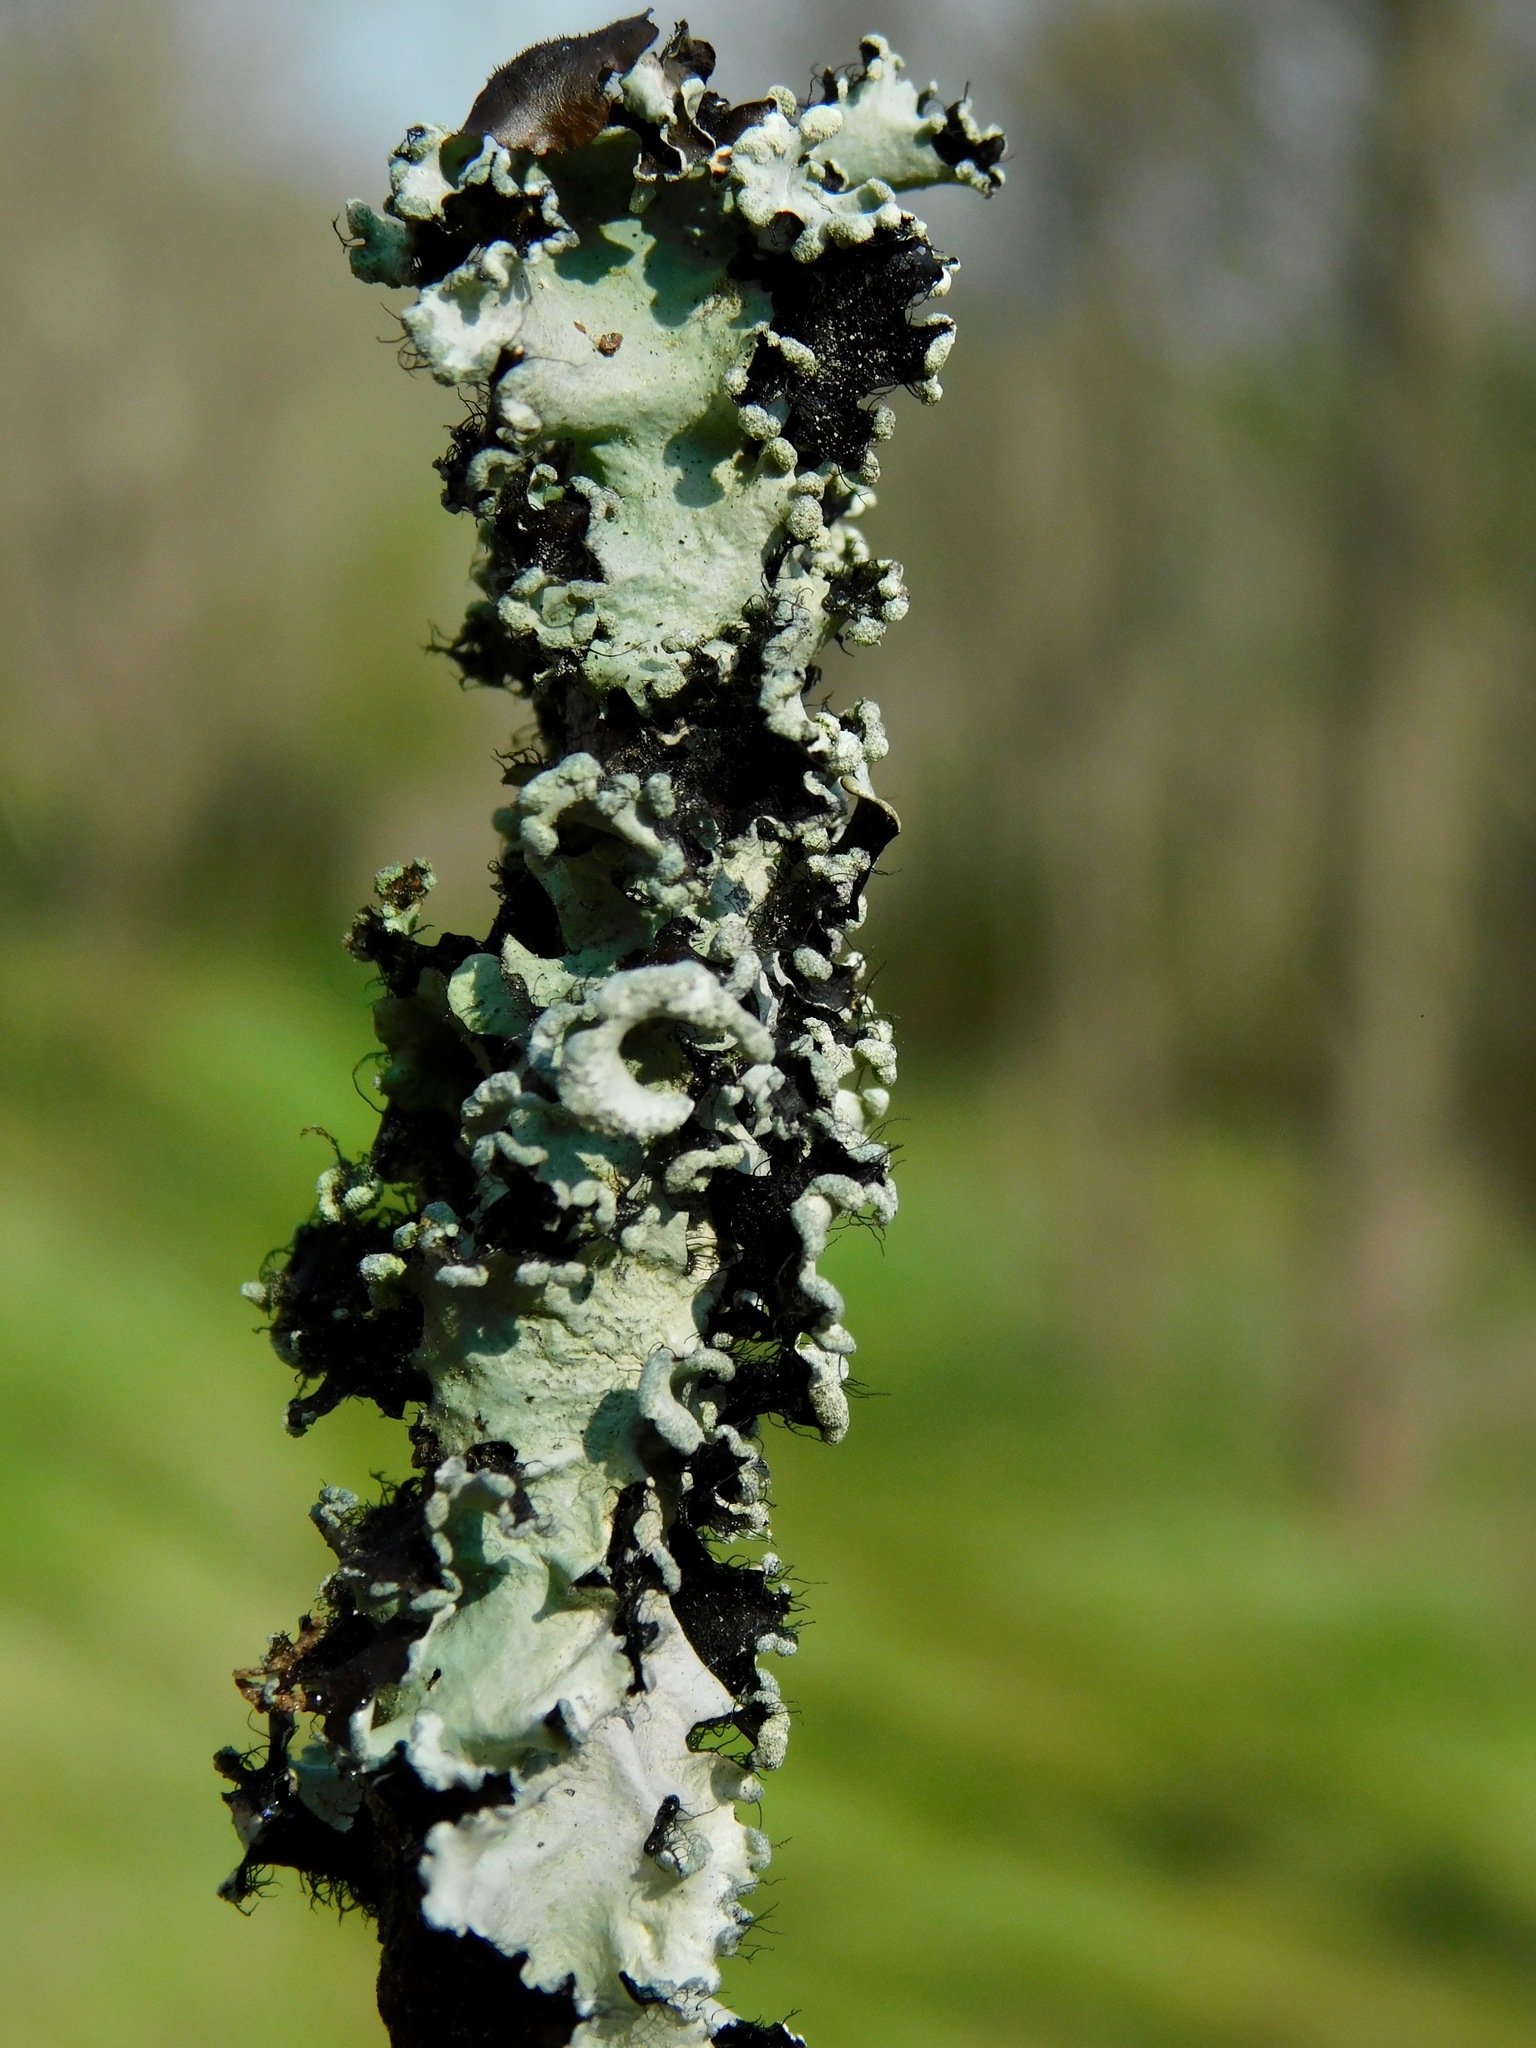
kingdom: Fungi
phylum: Ascomycota
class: Lecanoromycetes
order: Lecanorales
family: Parmeliaceae
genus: Parmotrema
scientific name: Parmotrema reticulatum
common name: Black sheet lichen
